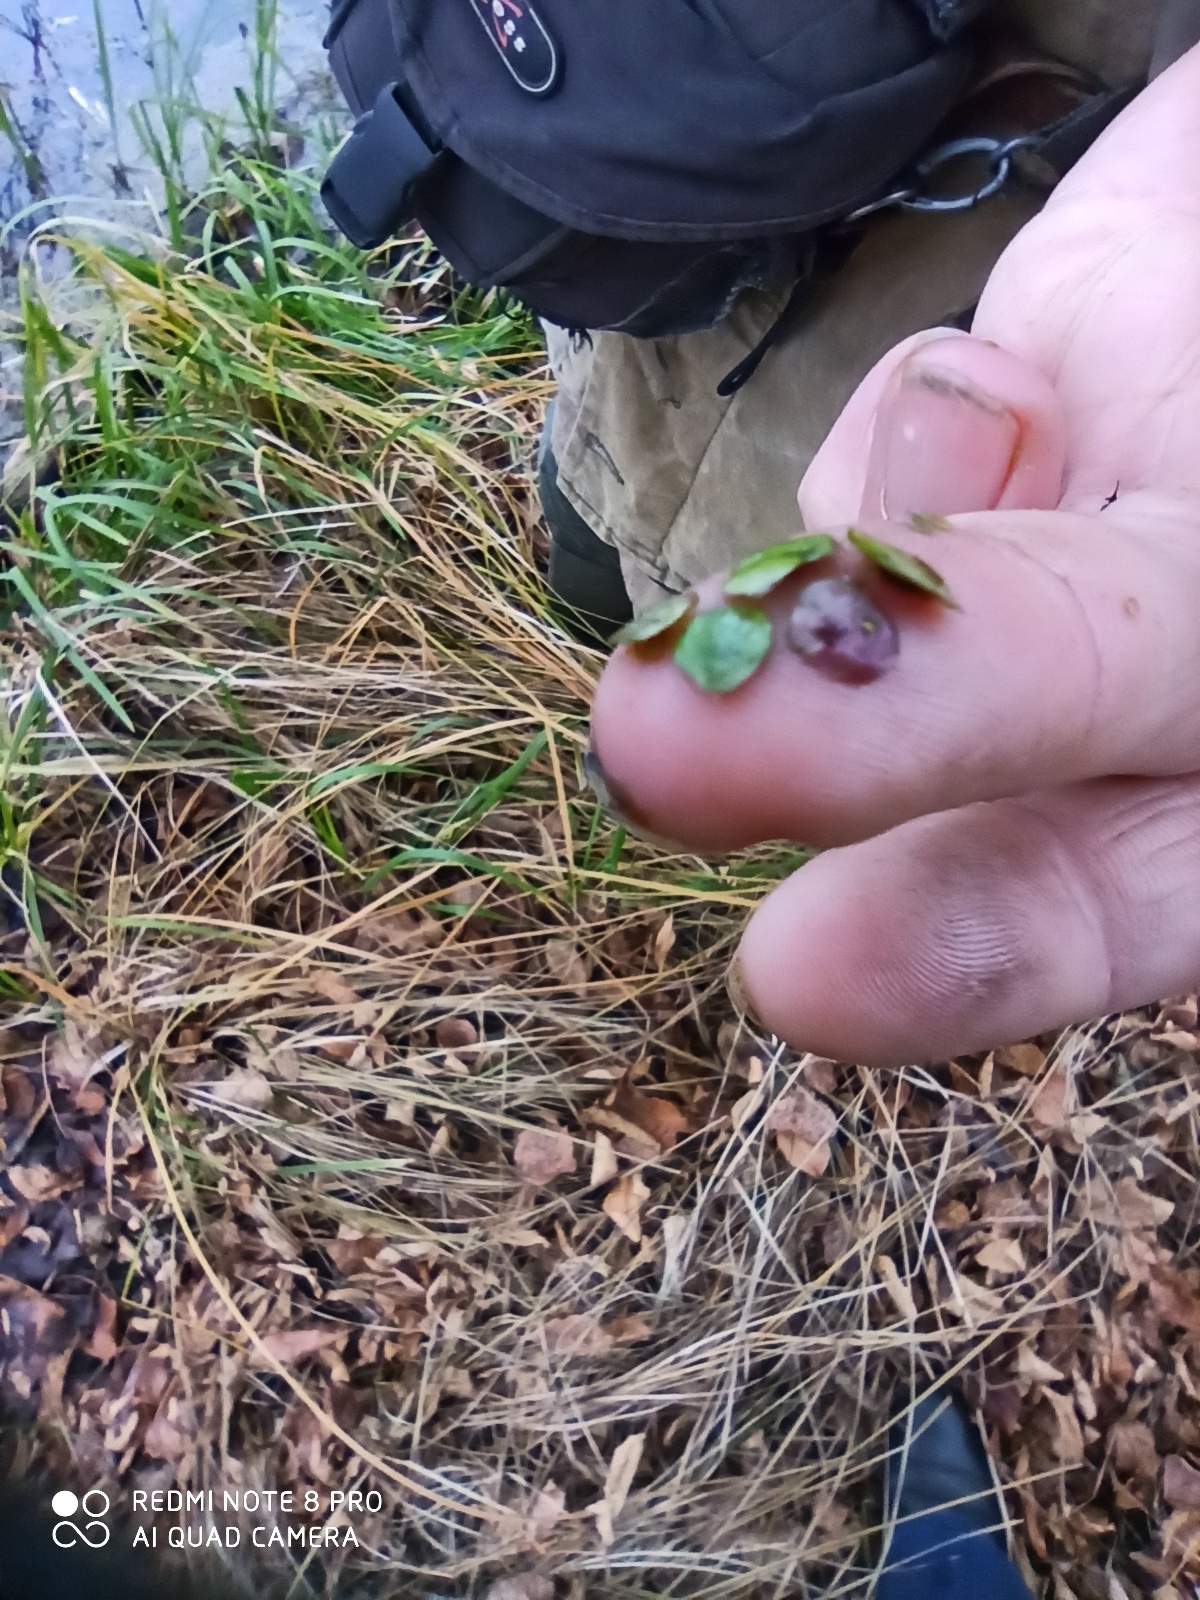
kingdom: Plantae
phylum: Tracheophyta
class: Liliopsida
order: Alismatales
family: Araceae
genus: Spirodela
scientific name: Spirodela polyrhiza
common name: Great duckweed
